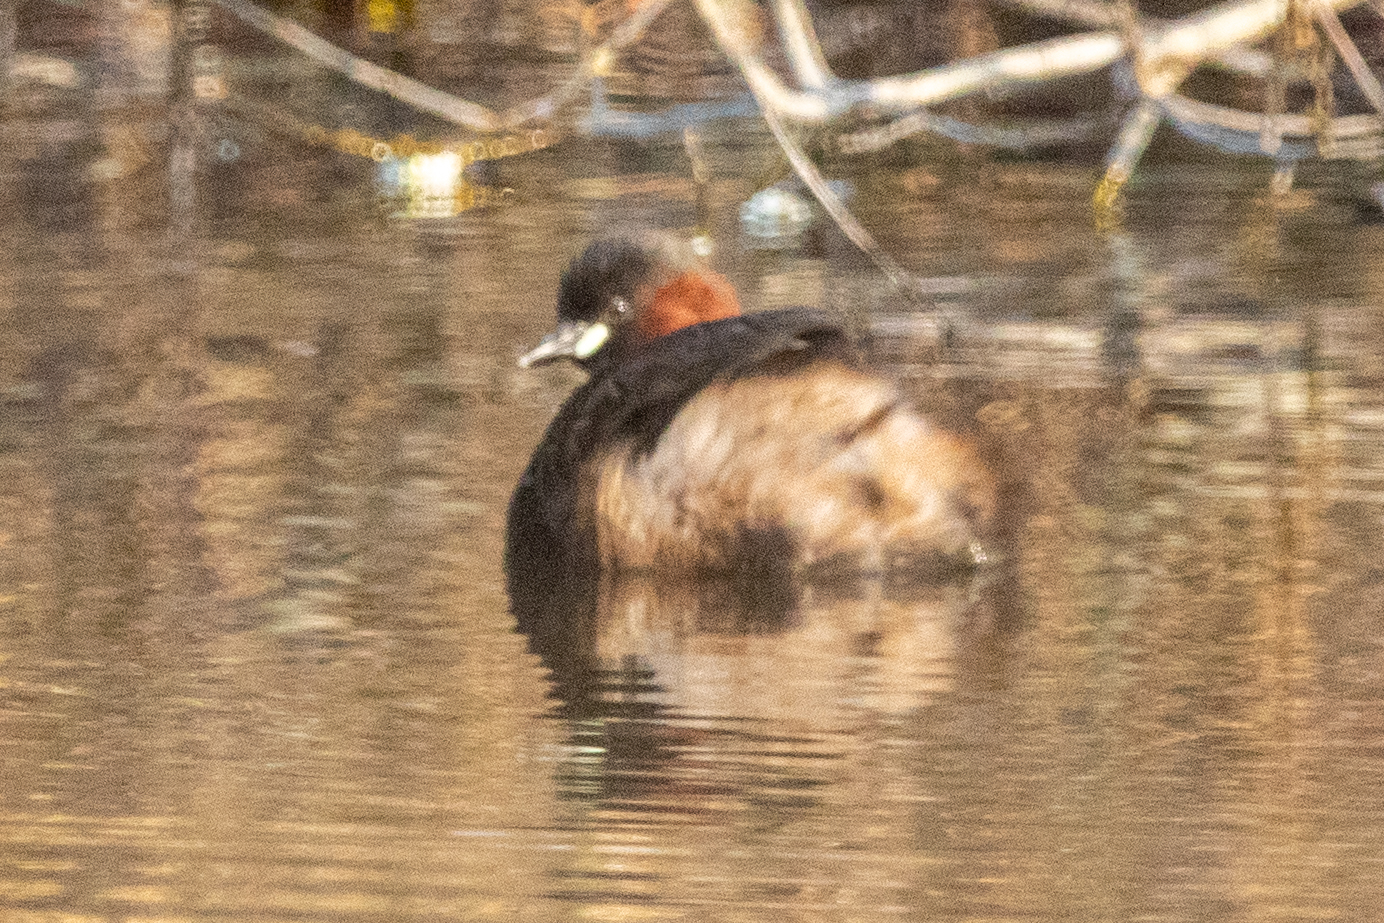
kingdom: Animalia
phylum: Chordata
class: Aves
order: Podicipediformes
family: Podicipedidae
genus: Tachybaptus
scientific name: Tachybaptus ruficollis
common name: Little grebe
